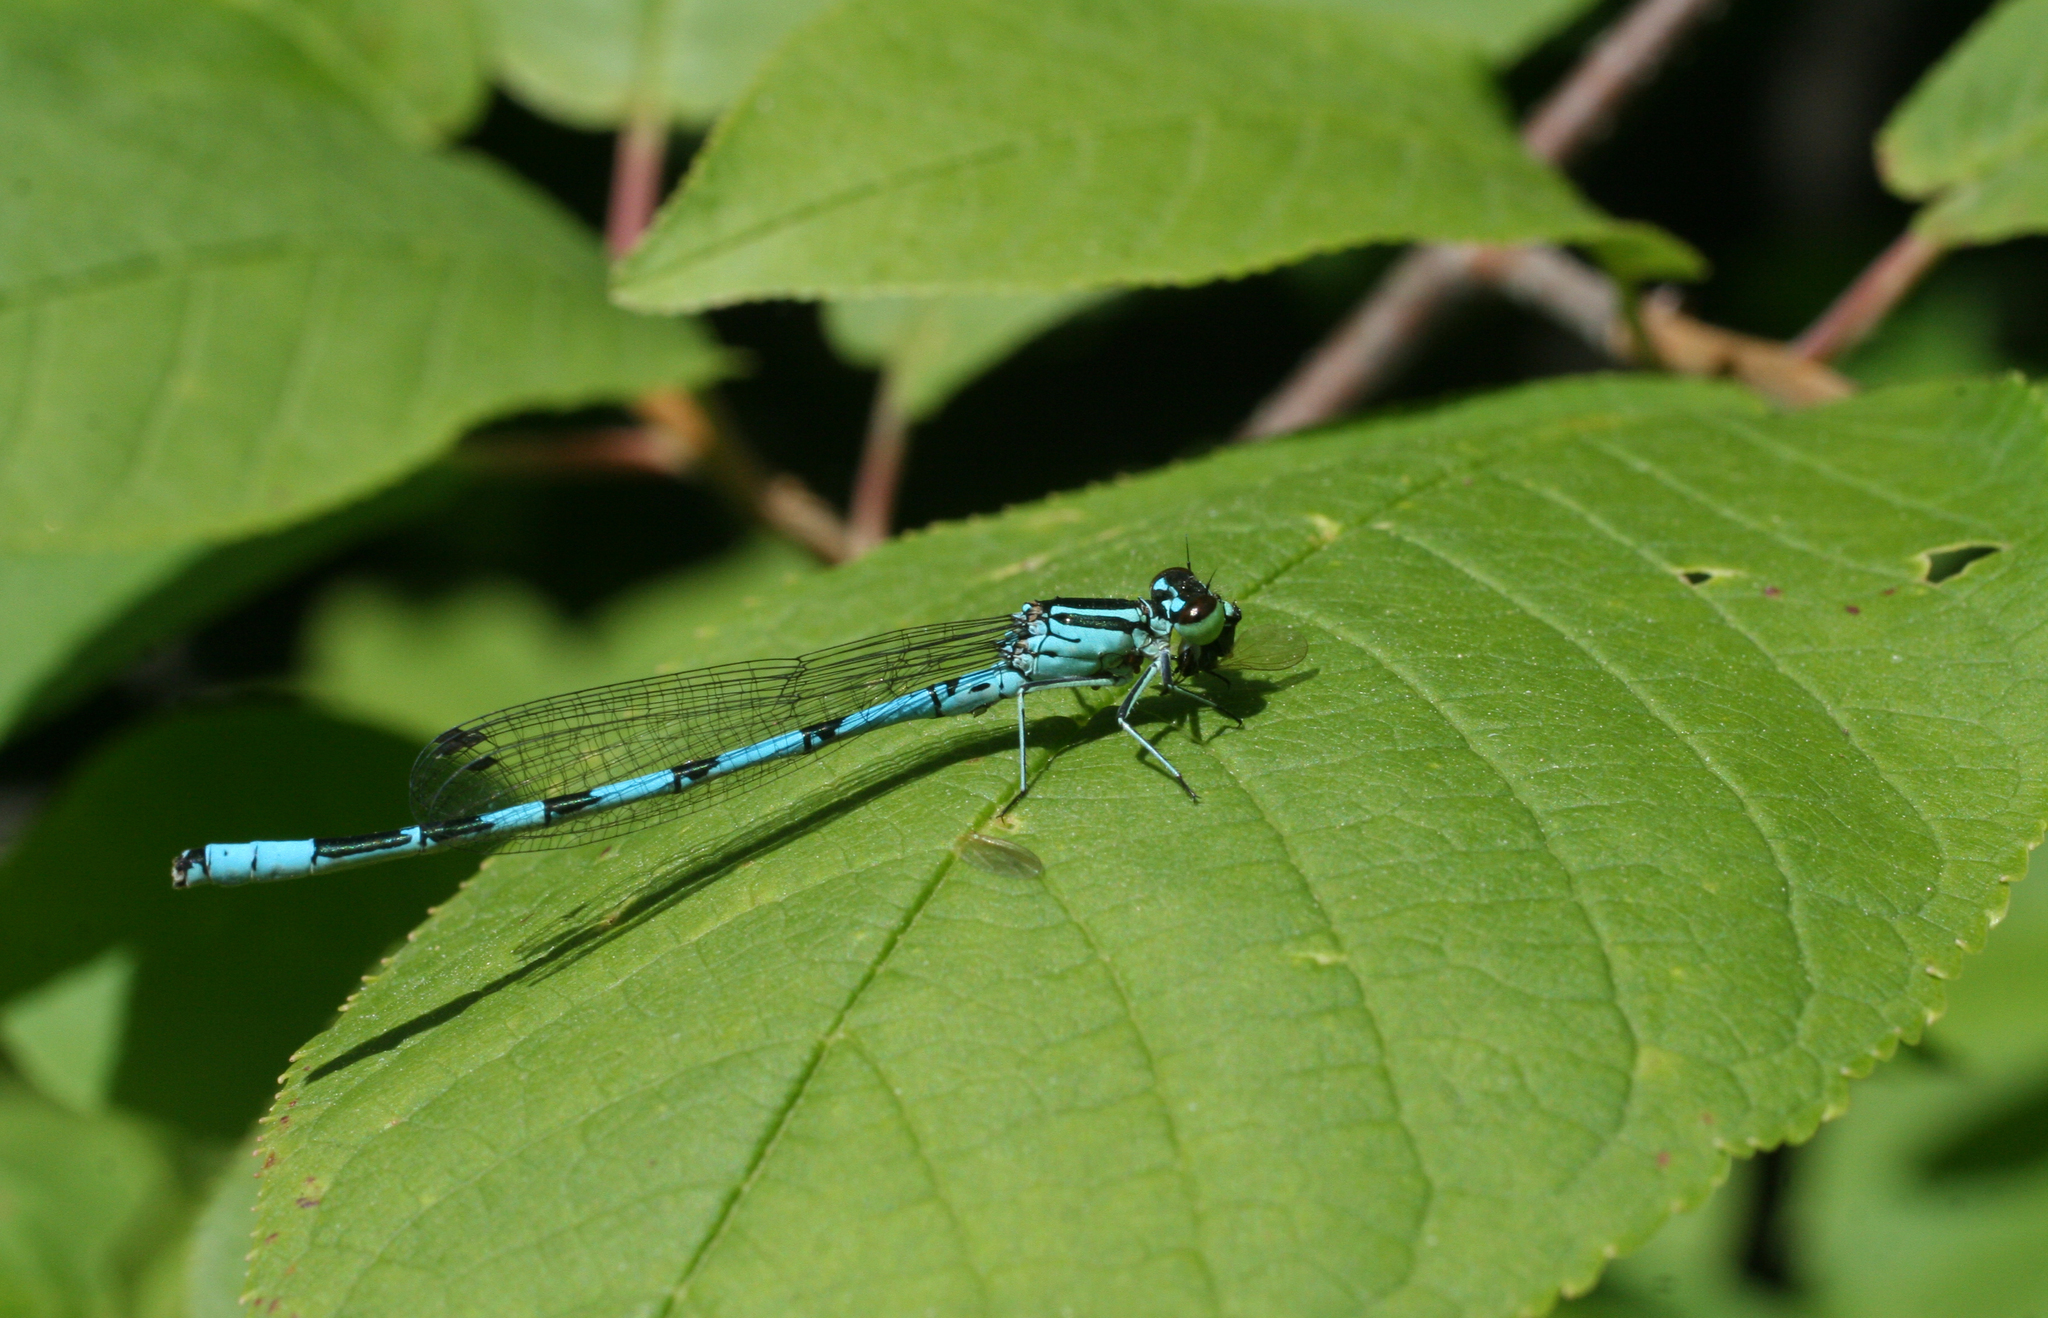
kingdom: Animalia
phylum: Arthropoda
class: Insecta
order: Odonata
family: Coenagrionidae
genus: Coenagrion
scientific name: Coenagrion hastulatum
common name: Spearhead bluet
